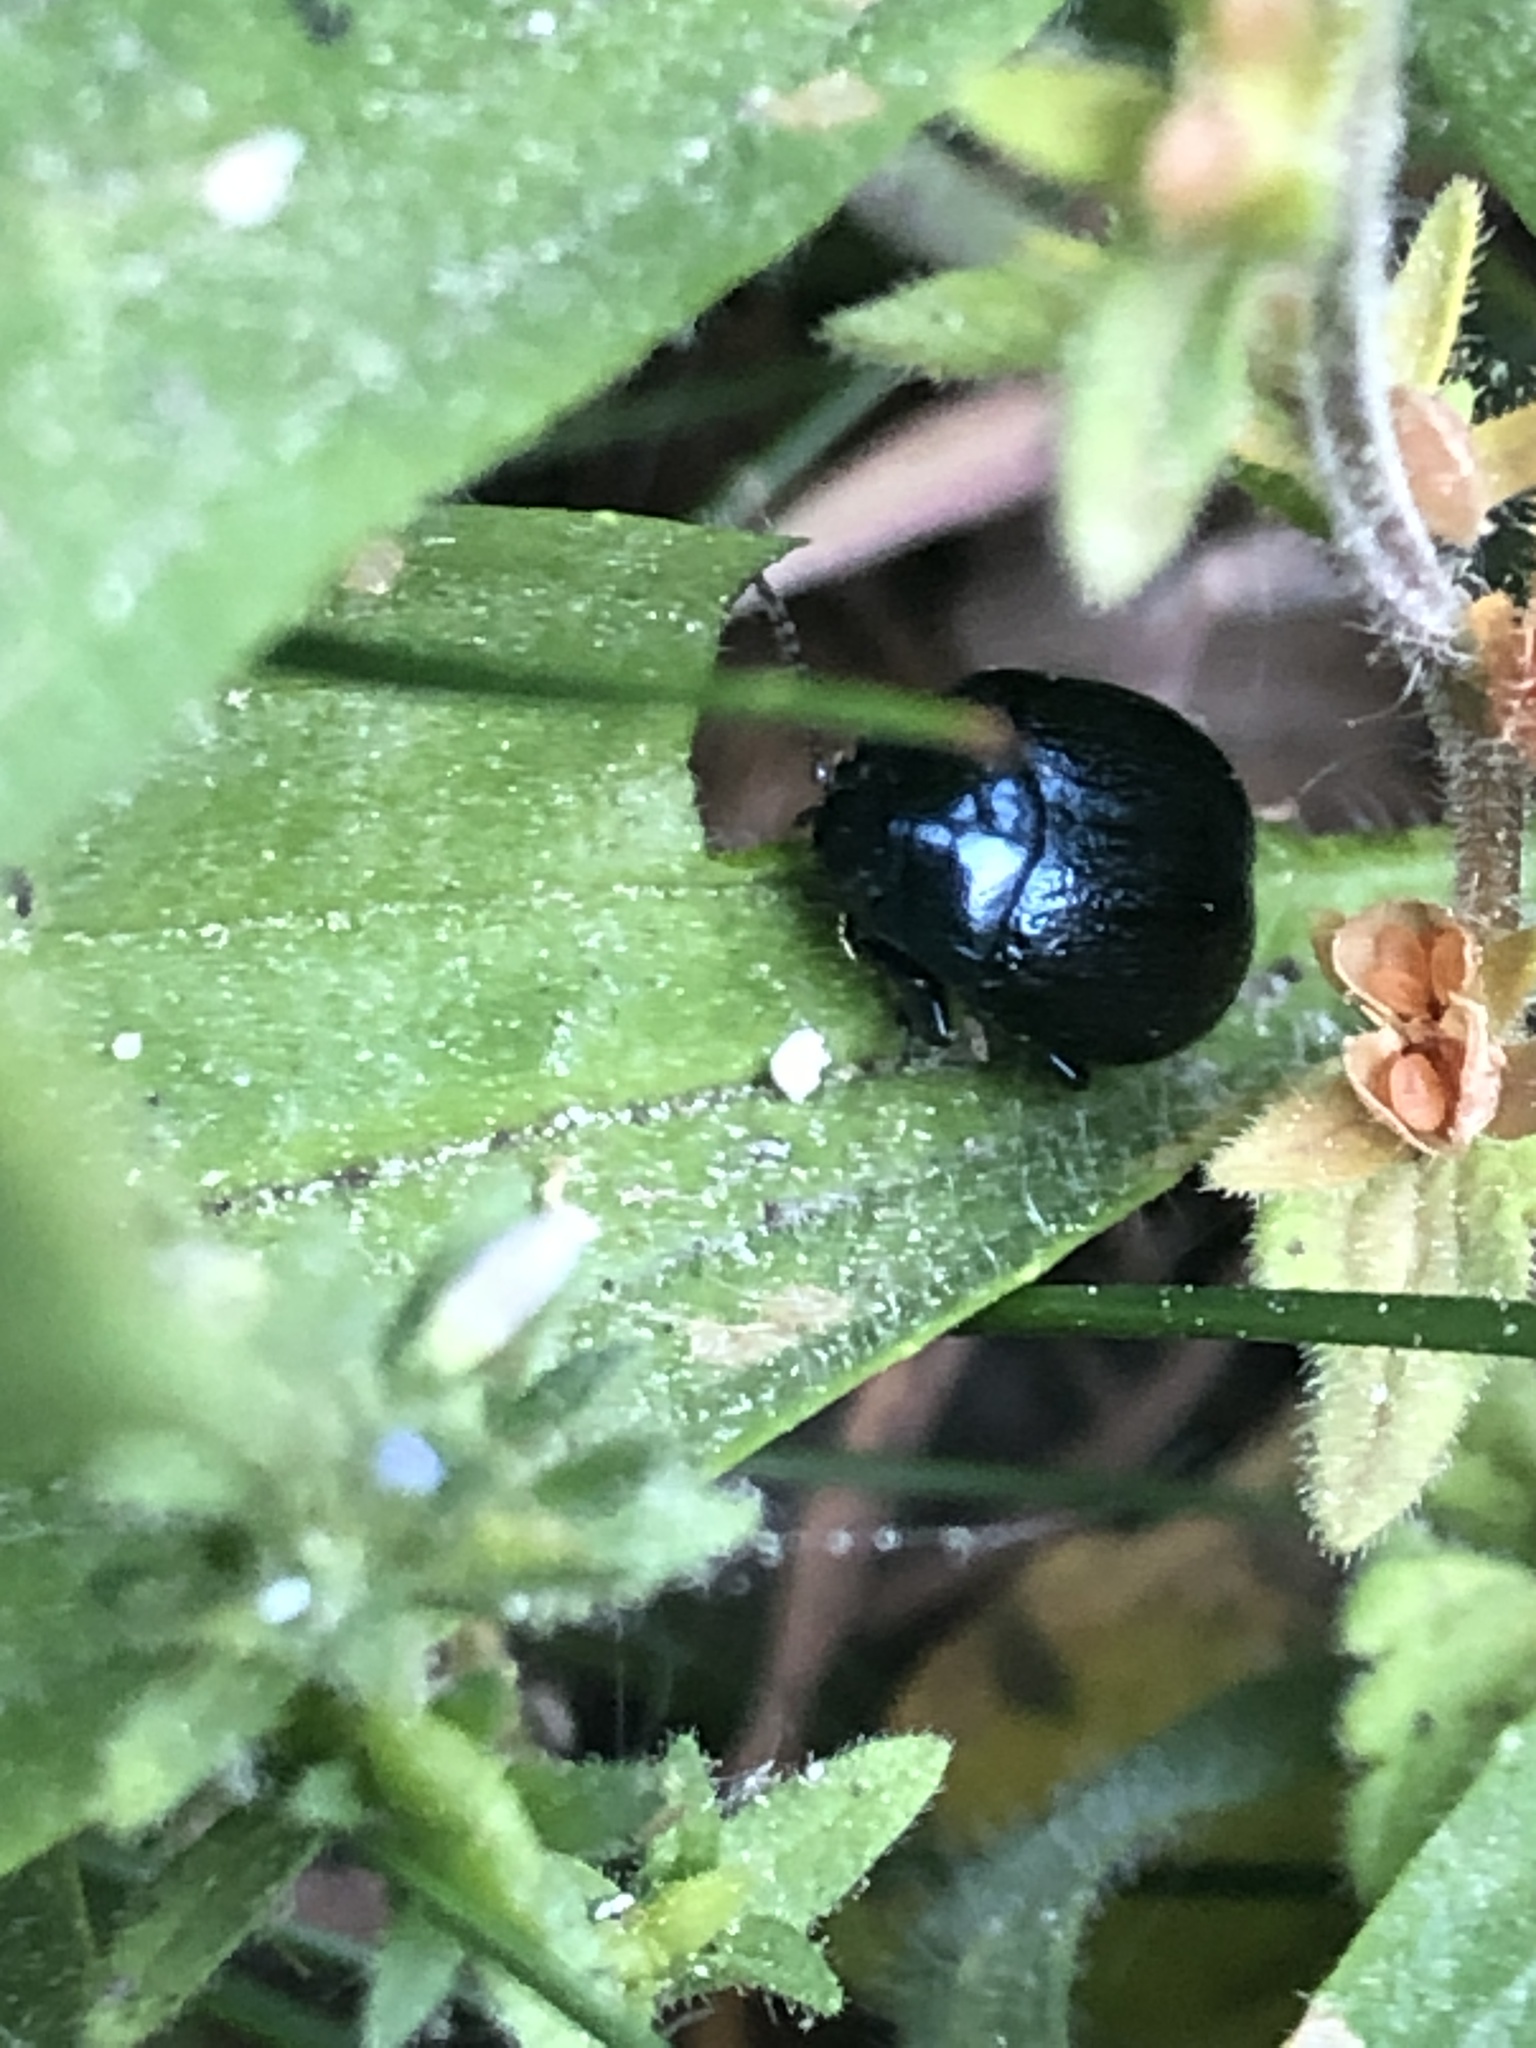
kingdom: Animalia
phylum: Arthropoda
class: Insecta
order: Coleoptera
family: Chrysomelidae
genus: Chrysolina
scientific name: Chrysolina haemoptera
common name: Plantain leaf beetle
